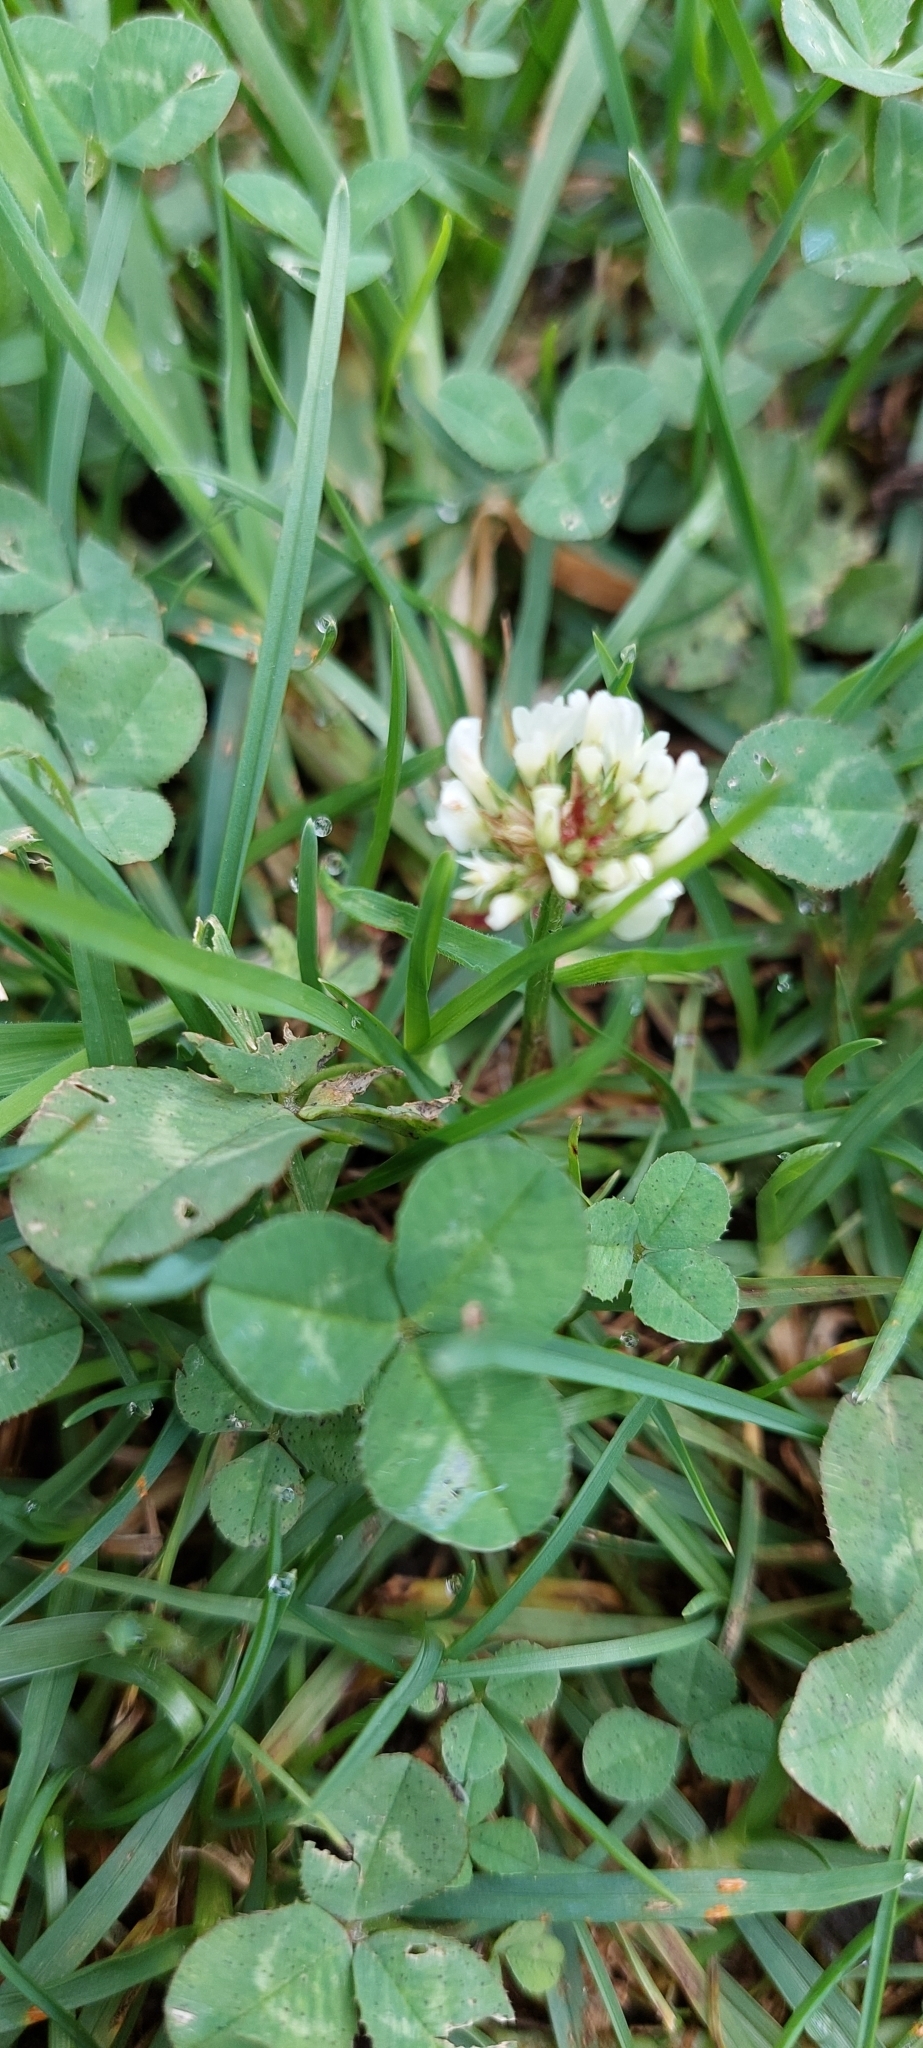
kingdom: Plantae
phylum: Tracheophyta
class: Magnoliopsida
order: Fabales
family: Fabaceae
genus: Trifolium
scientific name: Trifolium repens
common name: White clover
